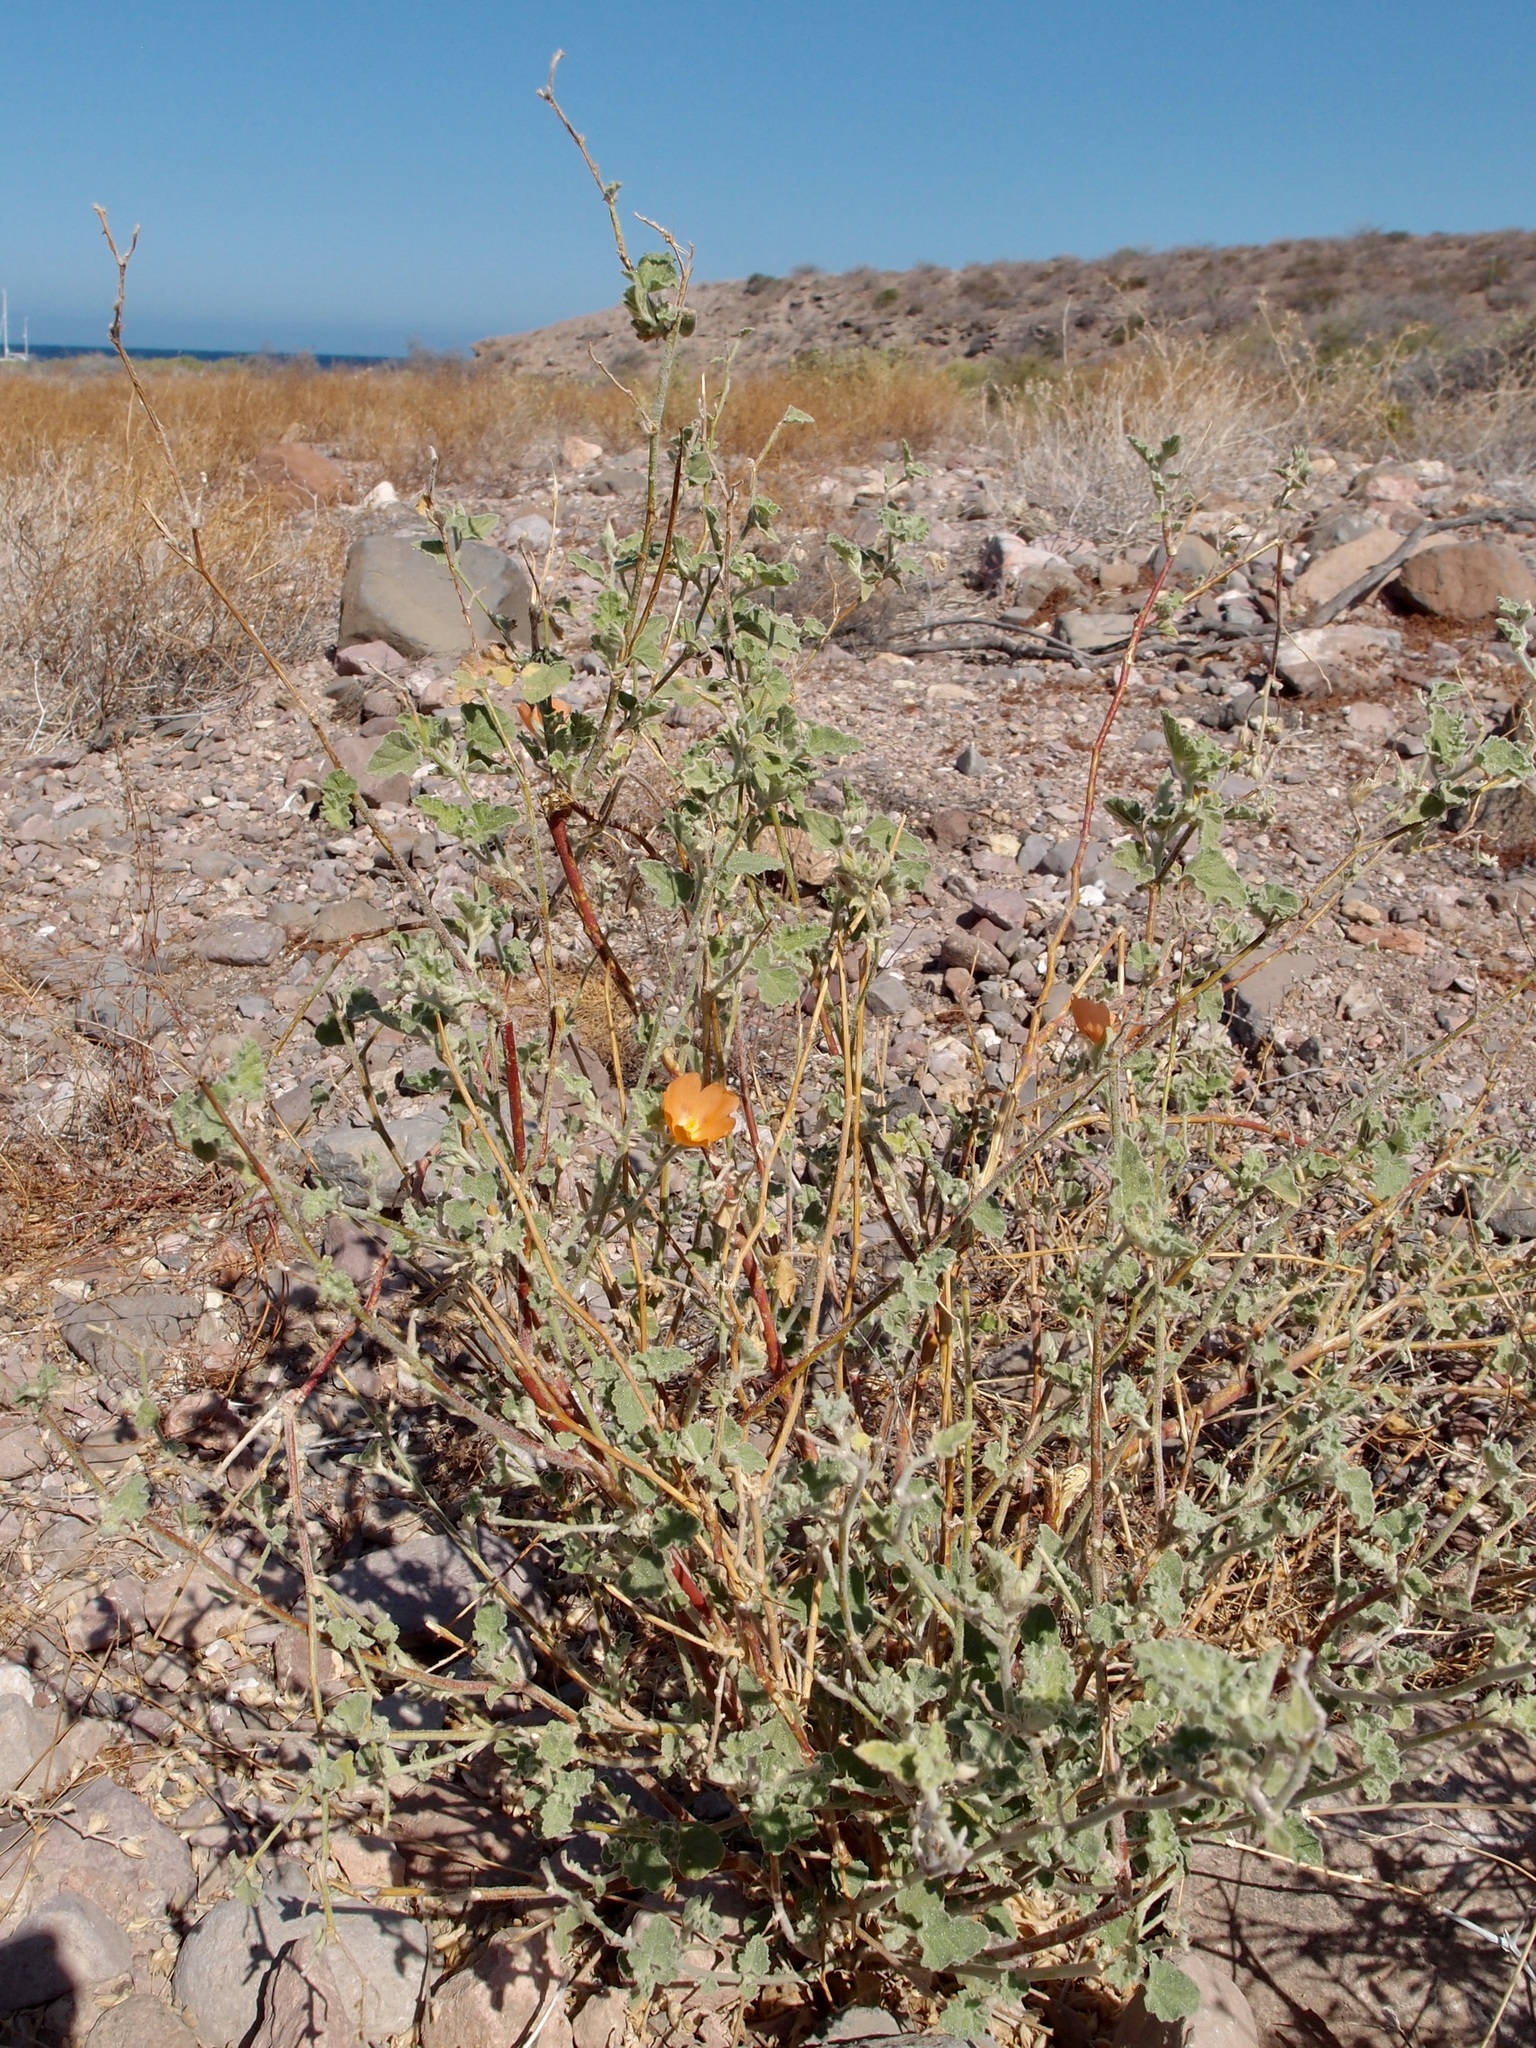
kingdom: Plantae
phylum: Tracheophyta
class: Magnoliopsida
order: Malvales
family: Malvaceae
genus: Sphaeralcea
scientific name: Sphaeralcea ambigua
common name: Apricot globe-mallow
